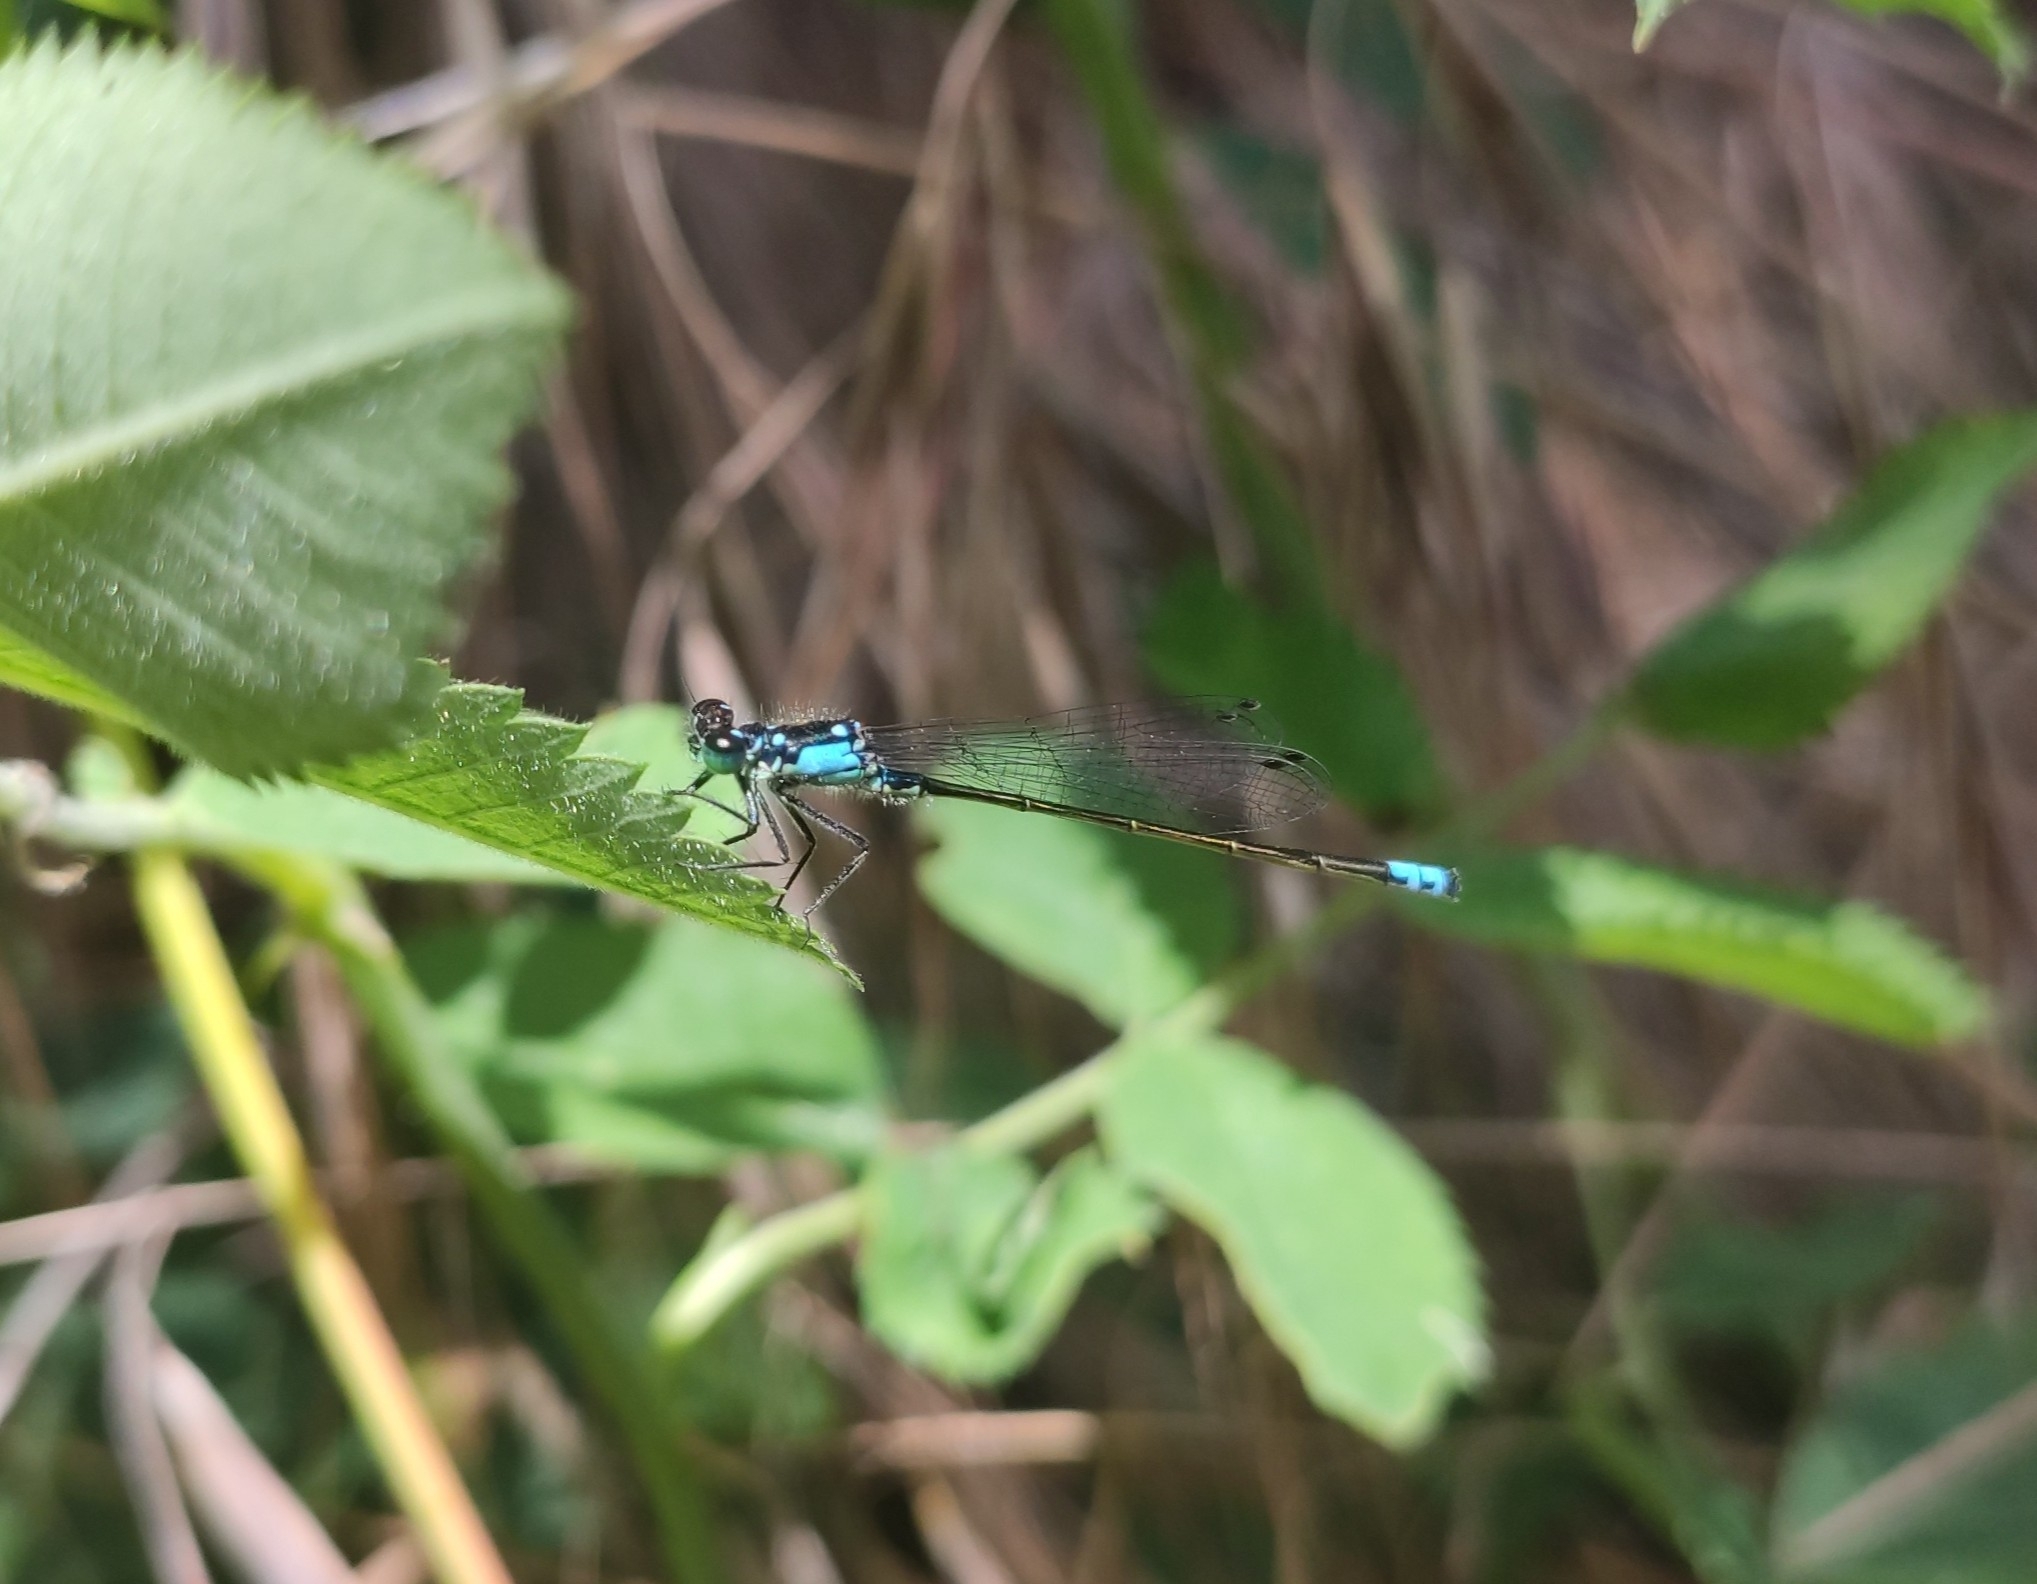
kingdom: Animalia
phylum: Arthropoda
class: Insecta
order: Odonata
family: Coenagrionidae
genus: Ischnura
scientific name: Ischnura cervula
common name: Pacific forktail
